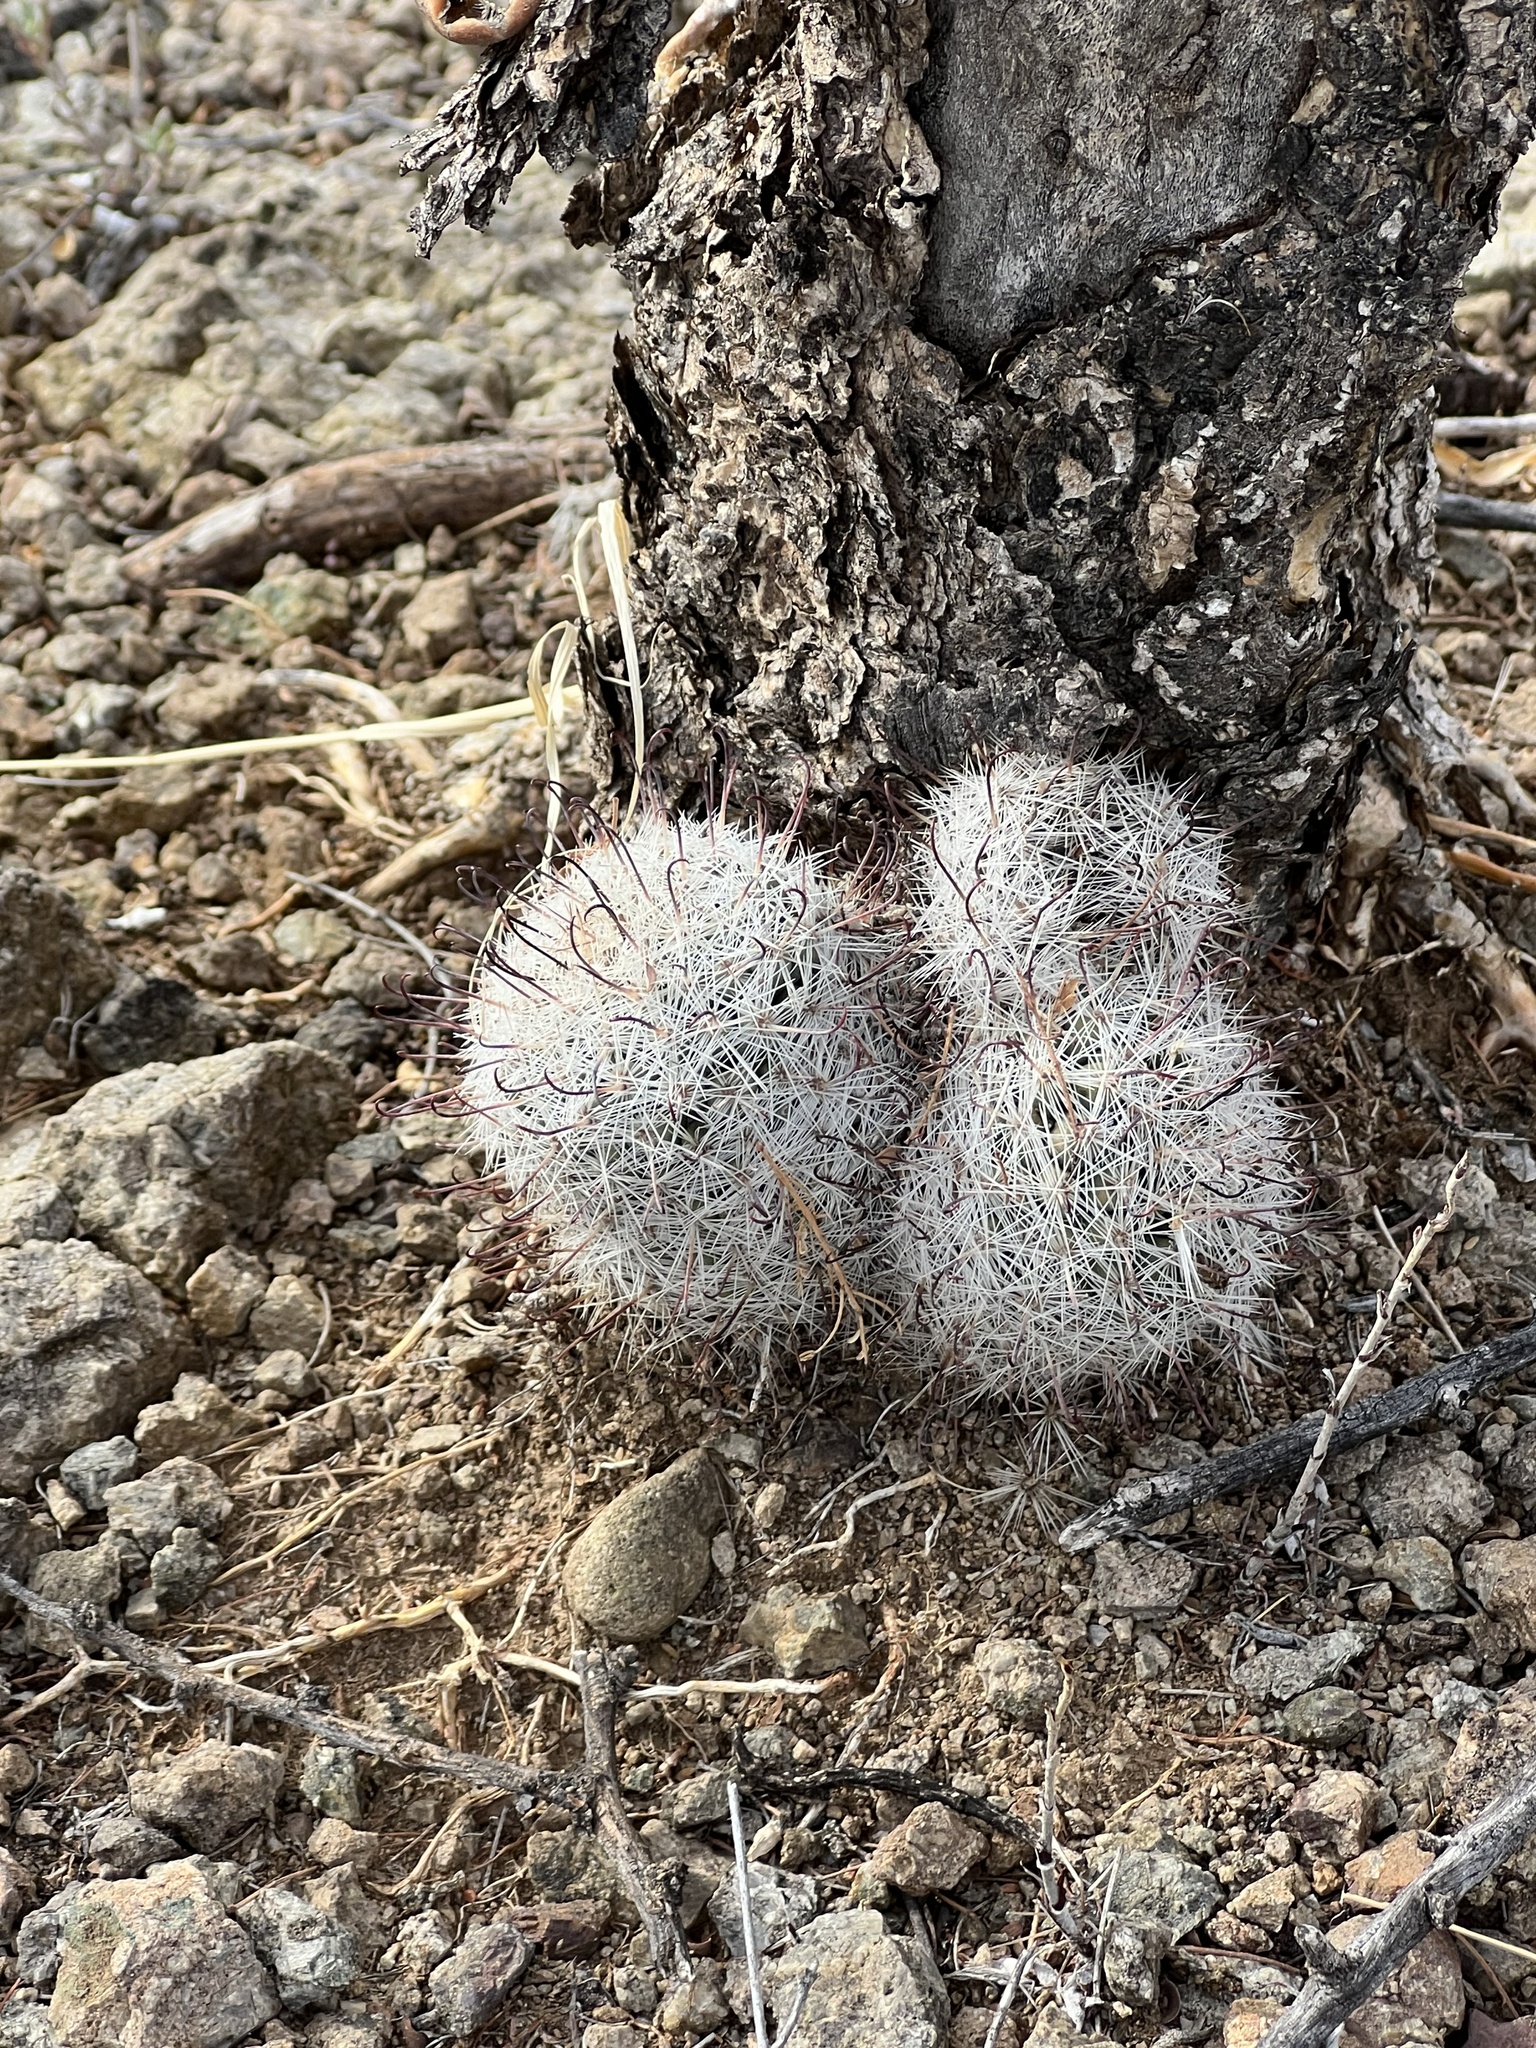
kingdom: Plantae
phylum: Tracheophyta
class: Magnoliopsida
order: Caryophyllales
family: Cactaceae
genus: Cochemiea
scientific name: Cochemiea grahamii
